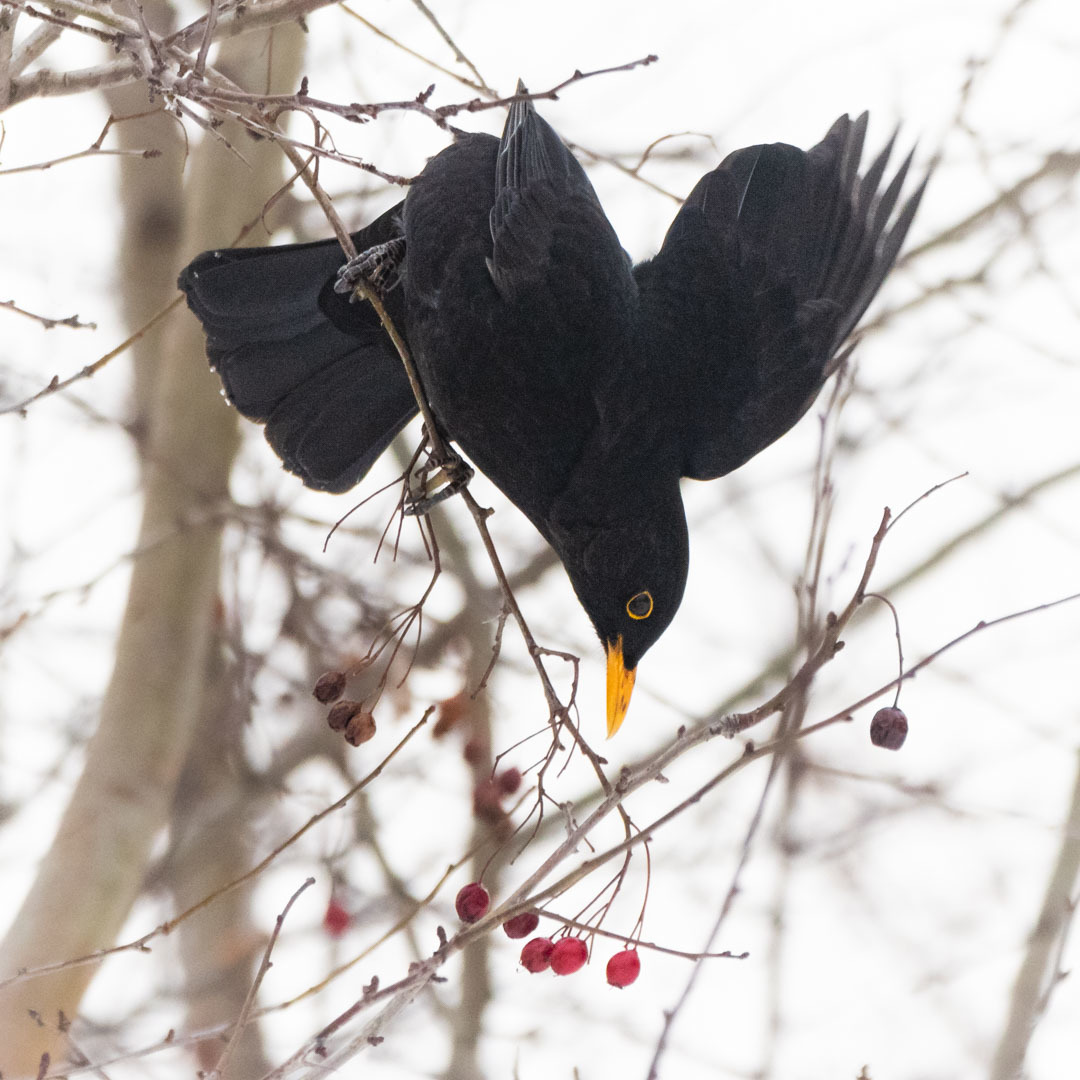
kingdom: Animalia
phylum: Chordata
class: Aves
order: Passeriformes
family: Turdidae
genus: Turdus
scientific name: Turdus merula
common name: Common blackbird
